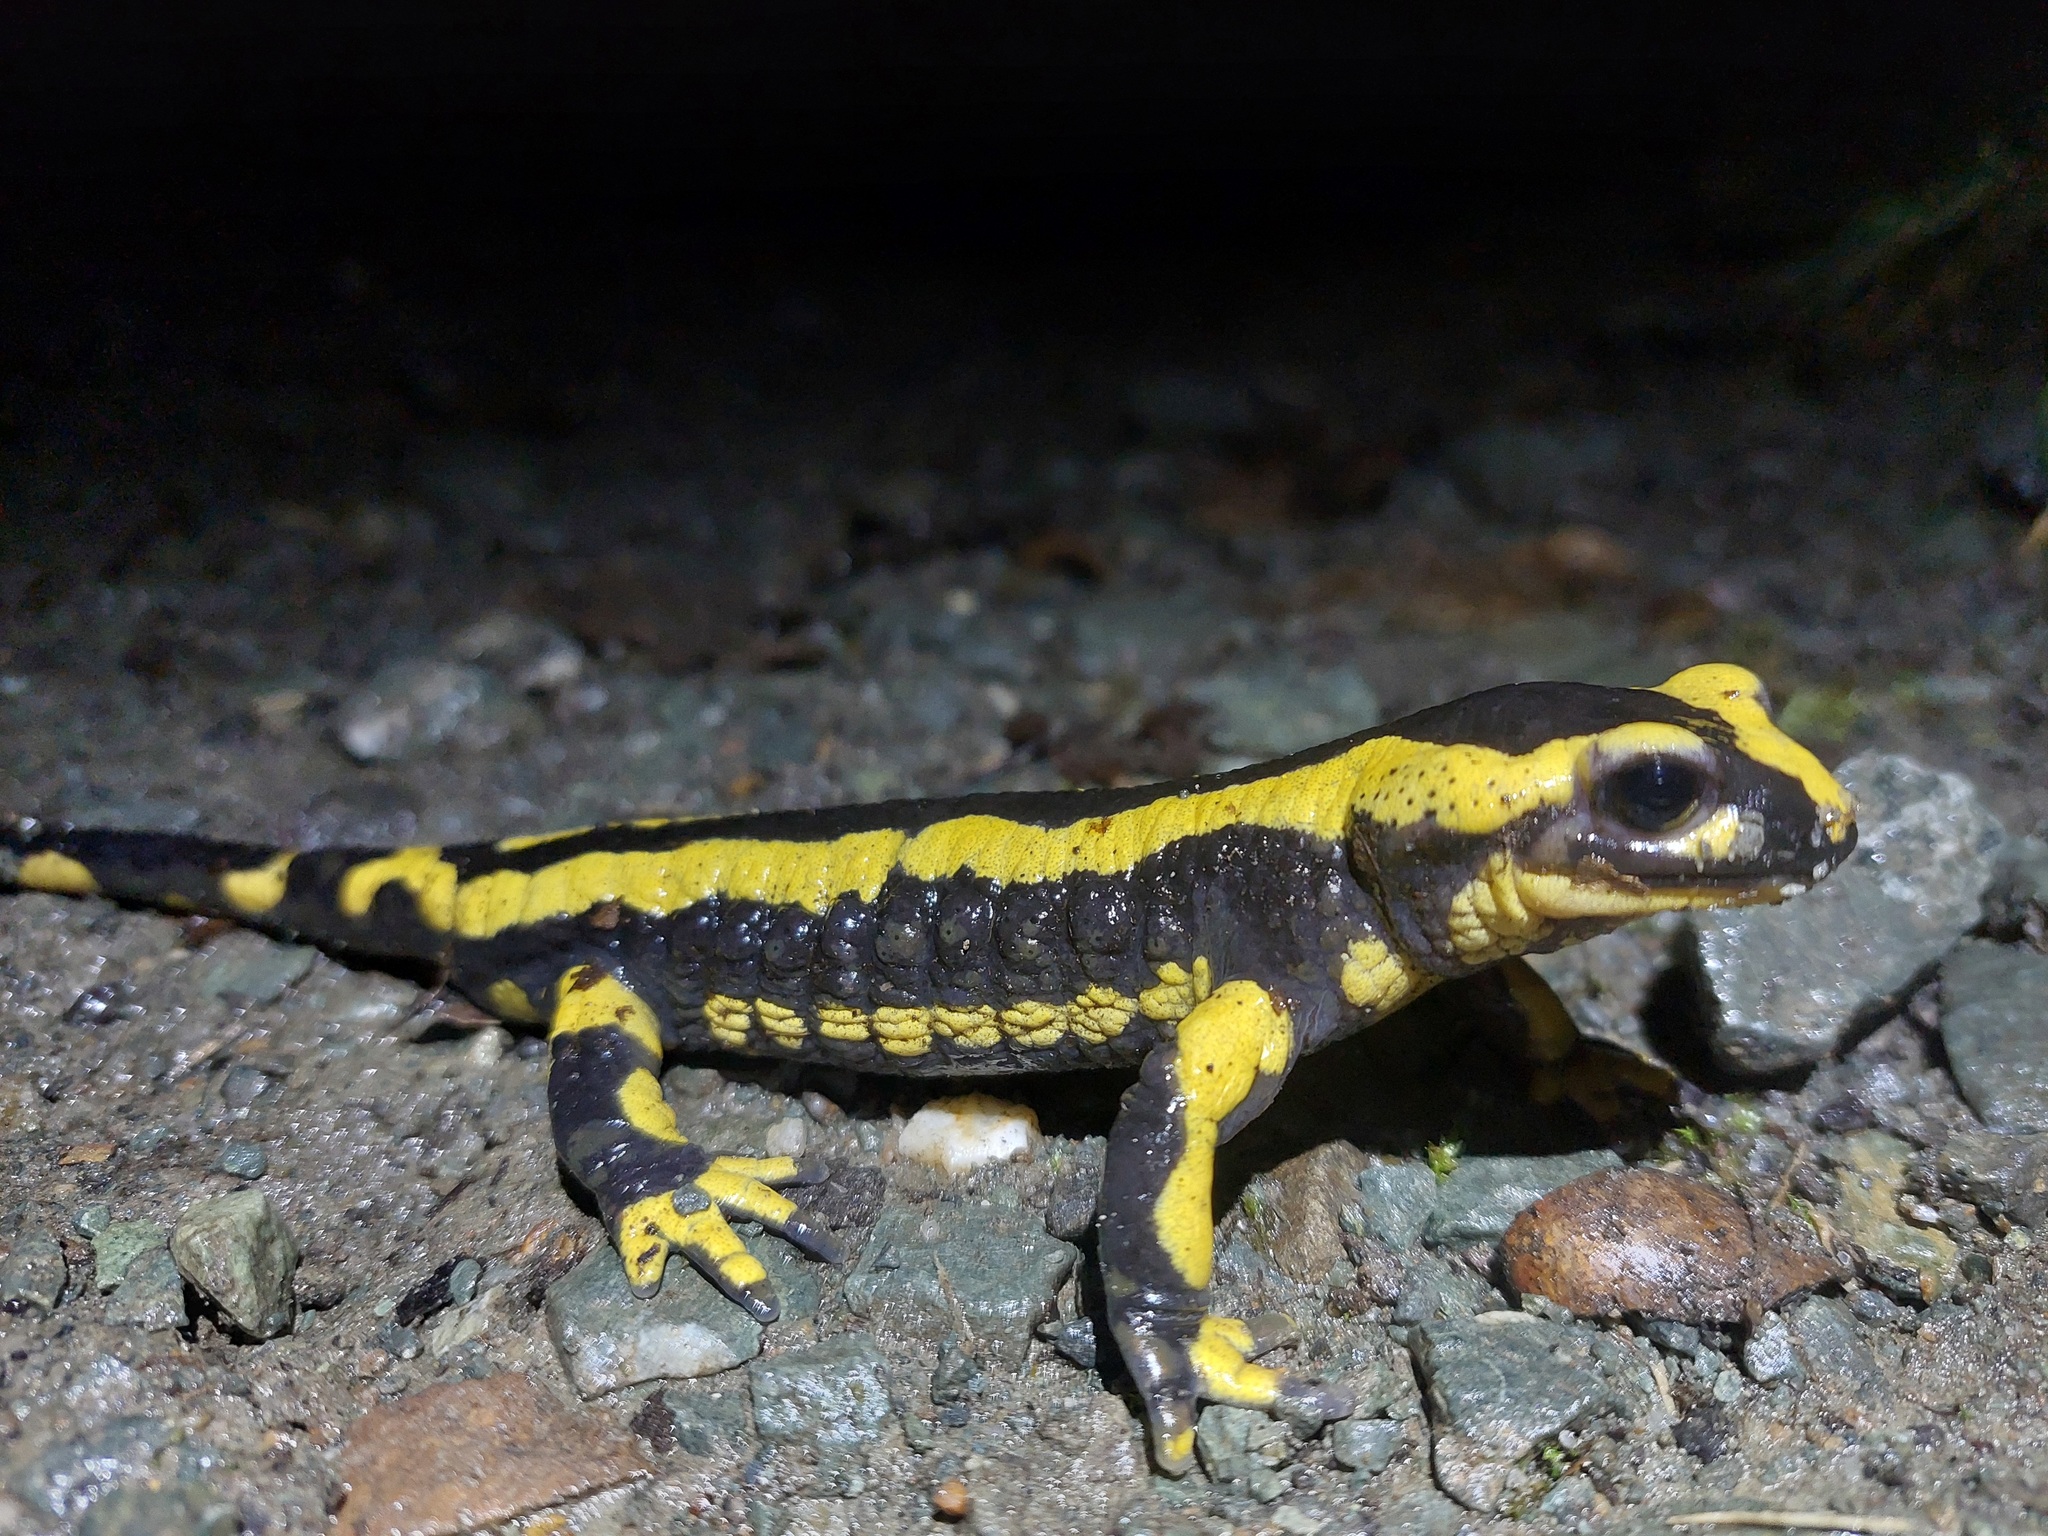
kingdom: Animalia
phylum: Chordata
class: Amphibia
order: Caudata
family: Salamandridae
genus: Salamandra
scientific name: Salamandra salamandra
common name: Fire salamander
